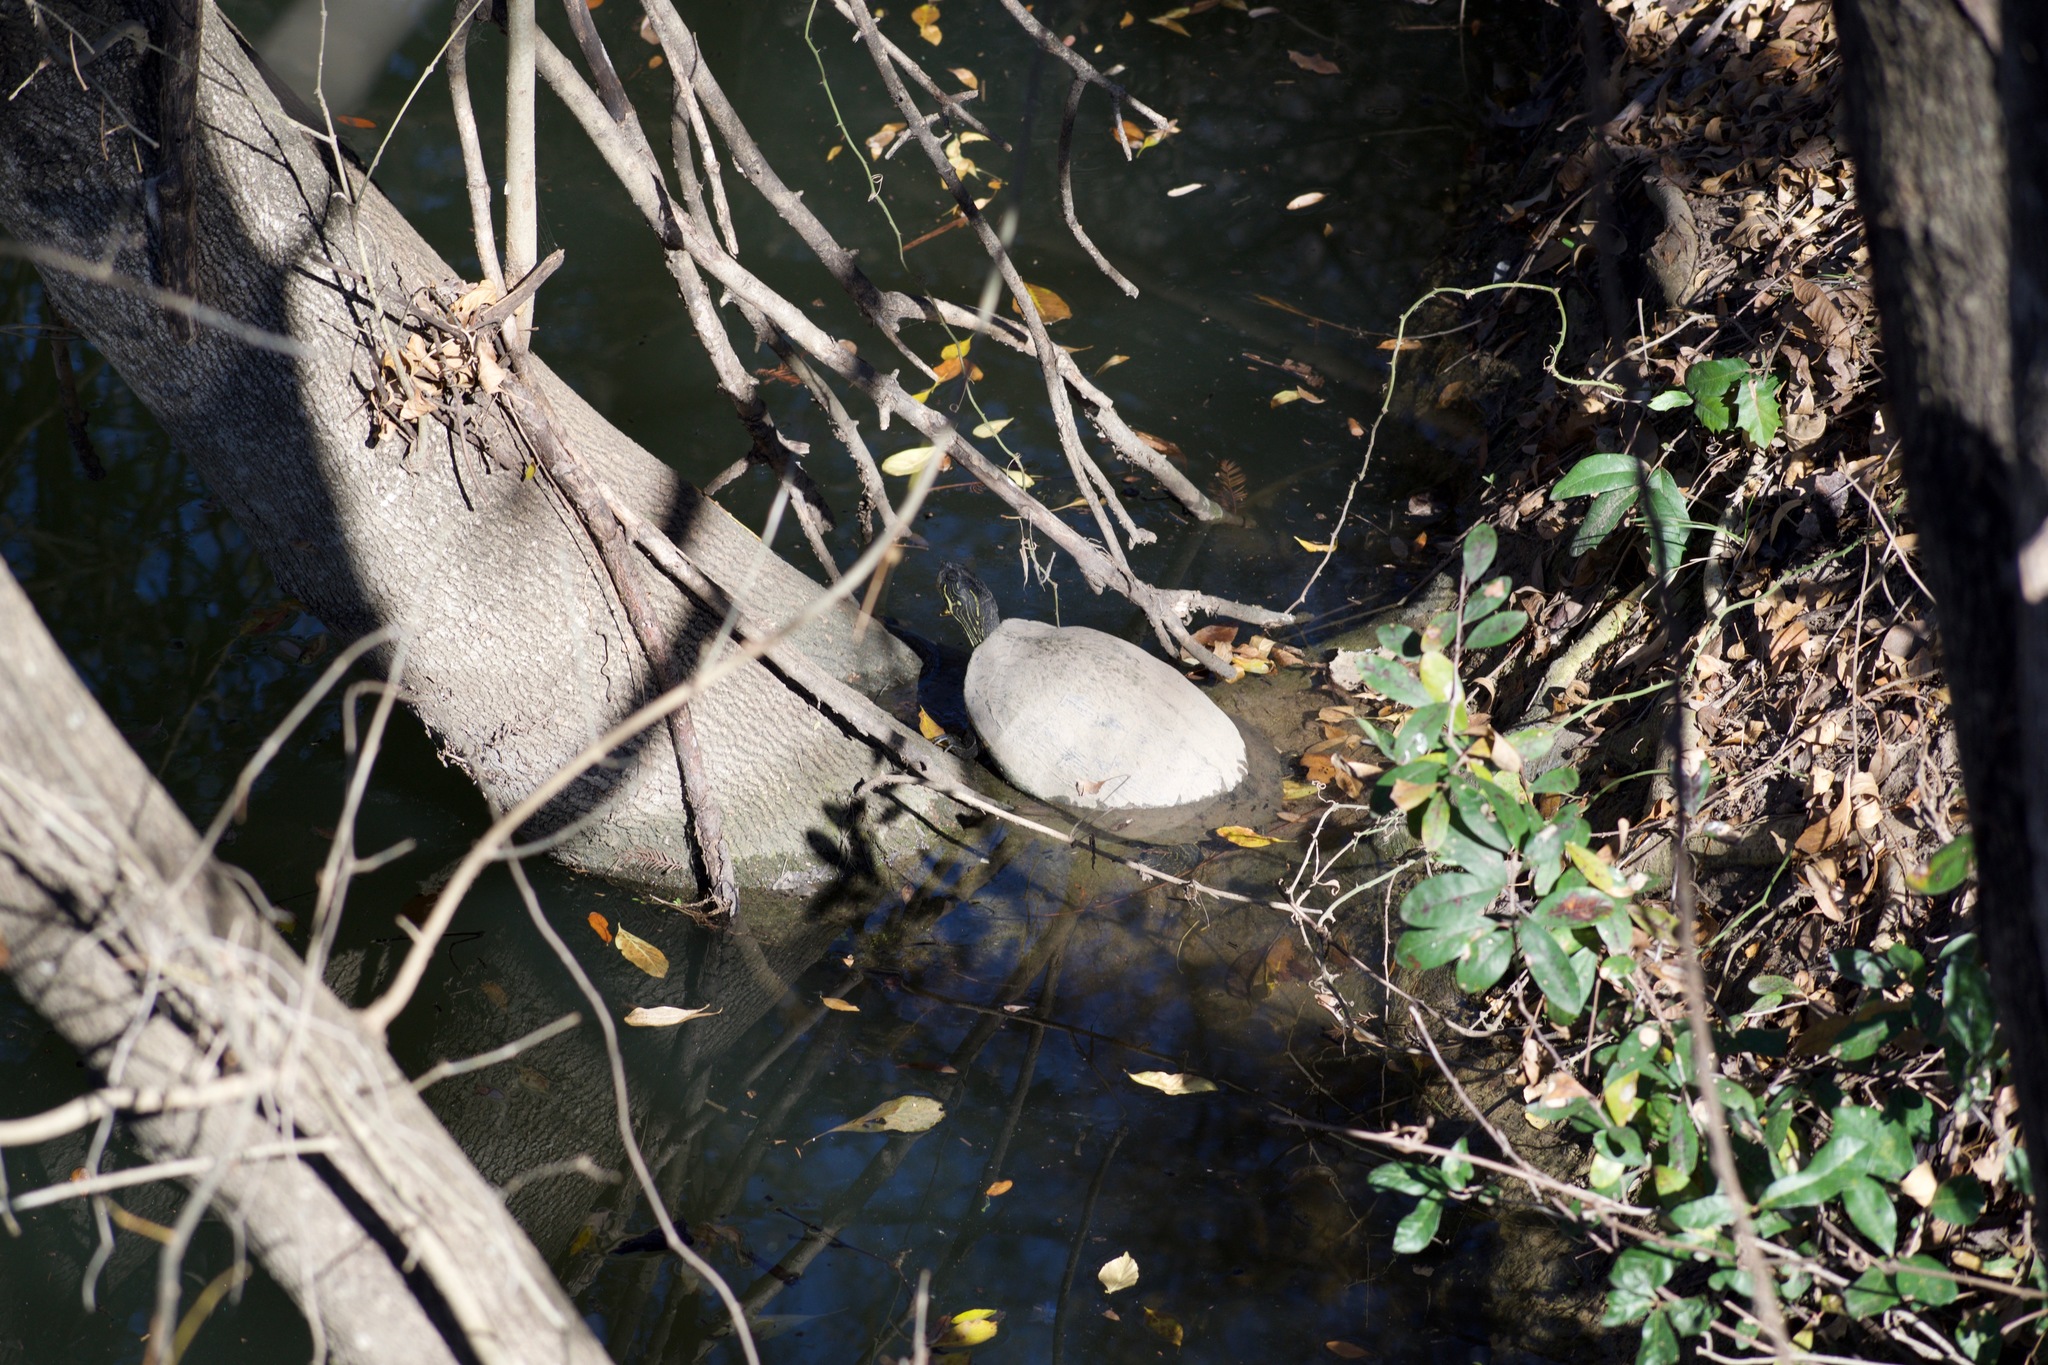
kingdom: Animalia
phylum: Chordata
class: Testudines
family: Emydidae
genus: Pseudemys
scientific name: Pseudemys texana
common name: Texas river cooter
